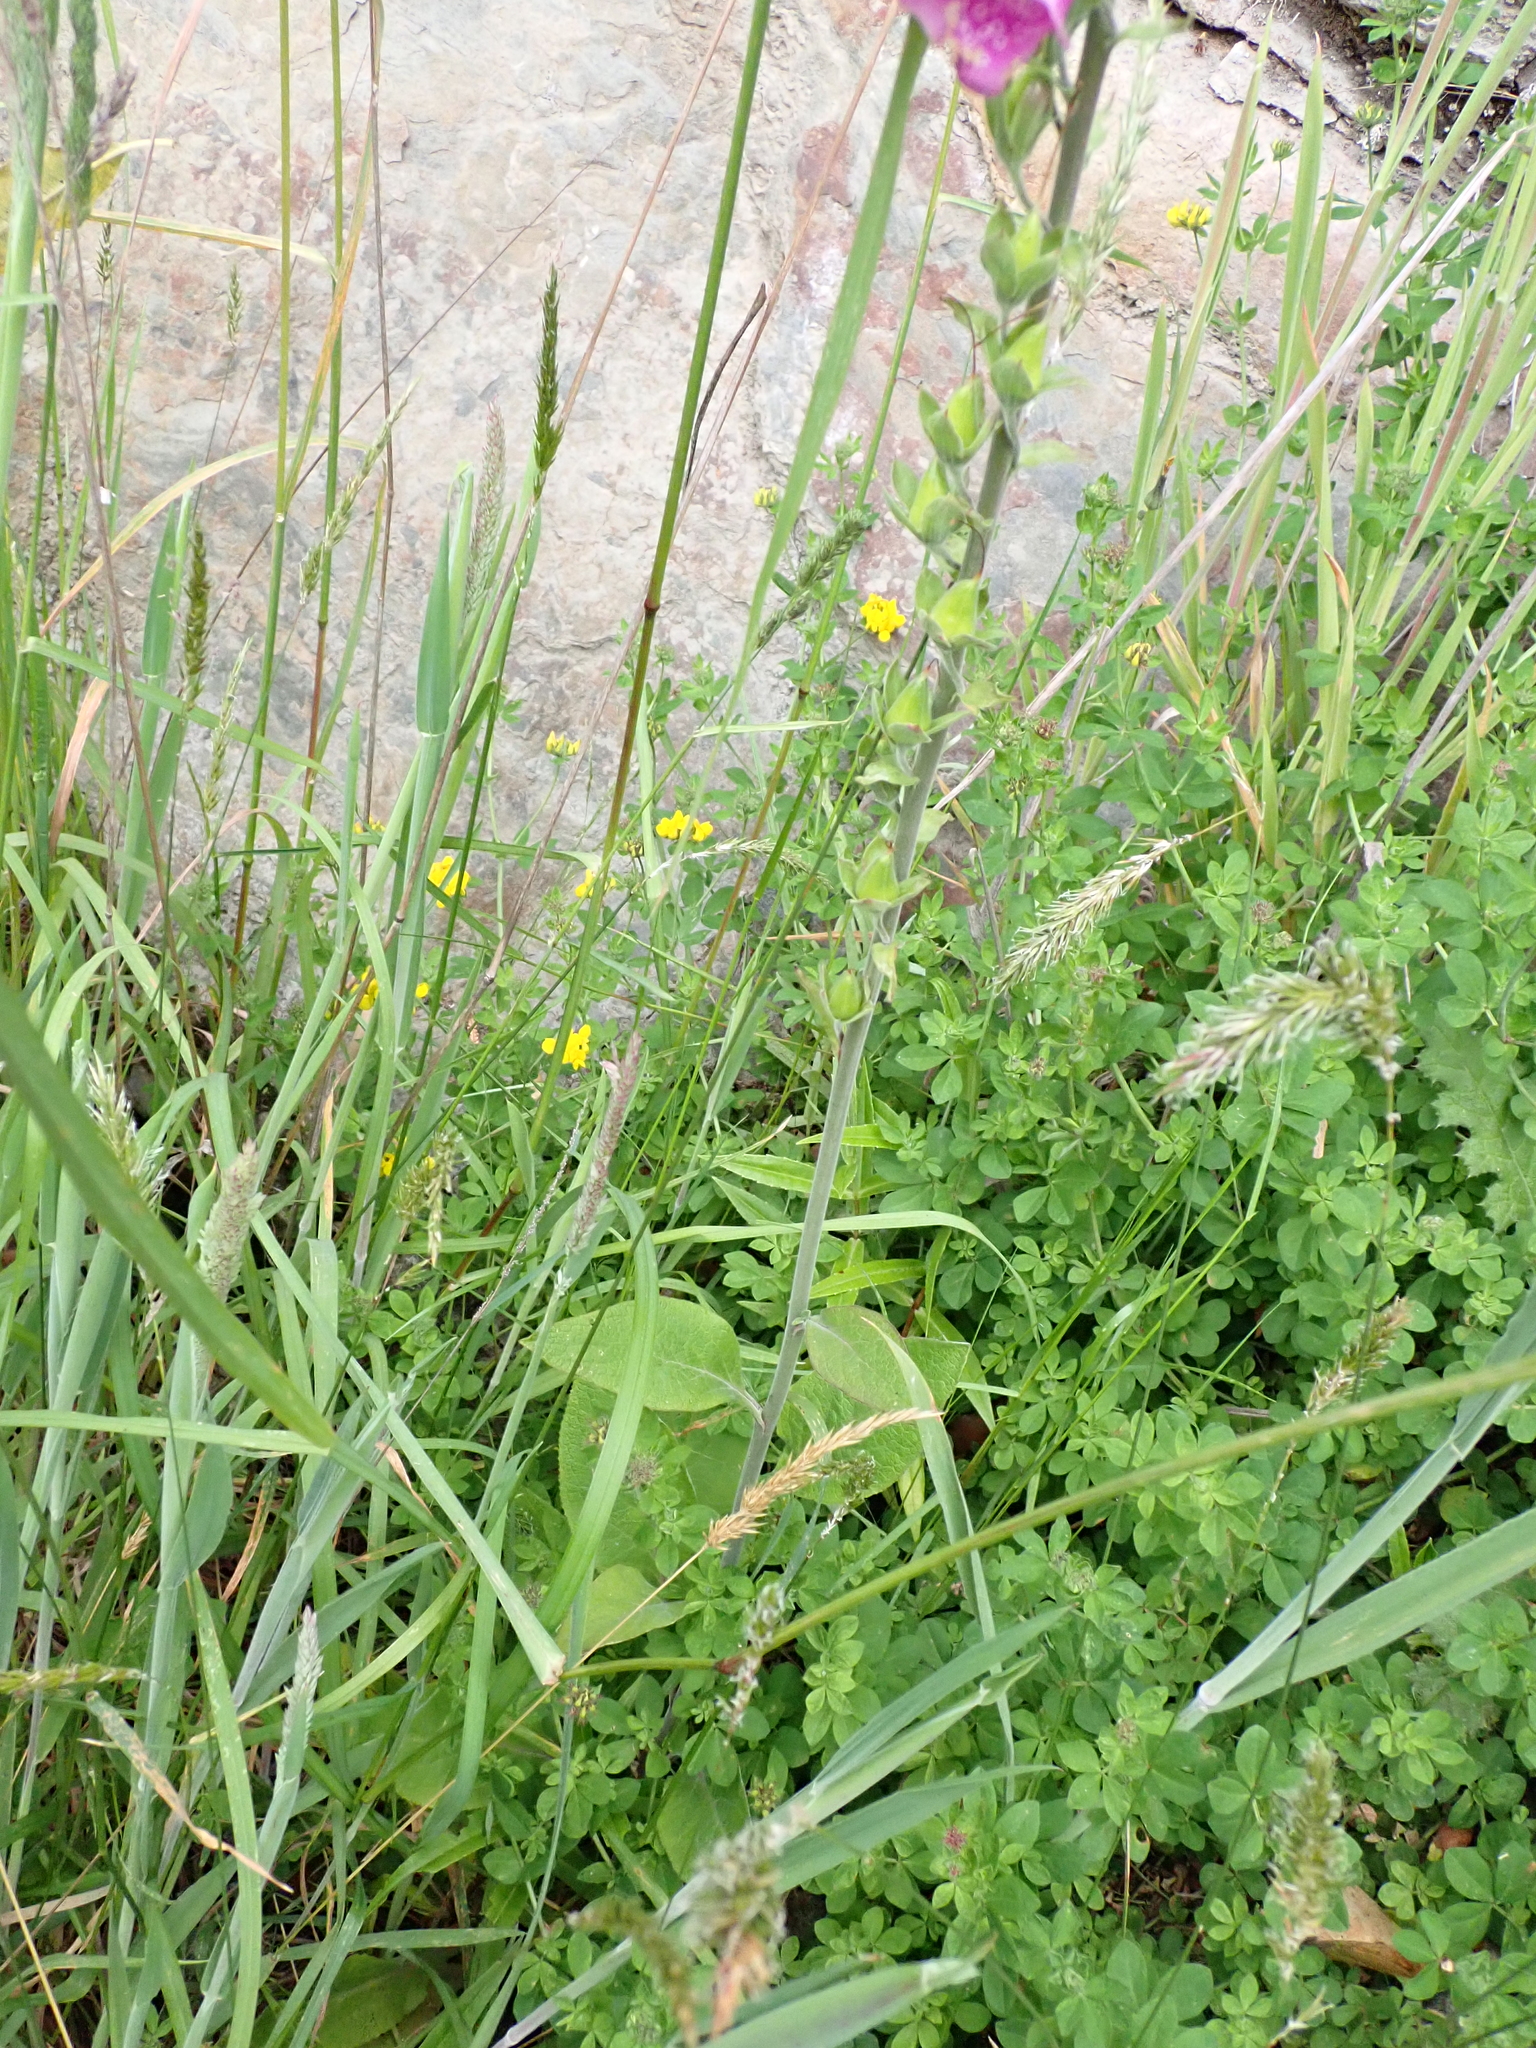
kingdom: Plantae
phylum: Tracheophyta
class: Magnoliopsida
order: Lamiales
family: Plantaginaceae
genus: Digitalis
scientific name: Digitalis purpurea
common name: Foxglove
